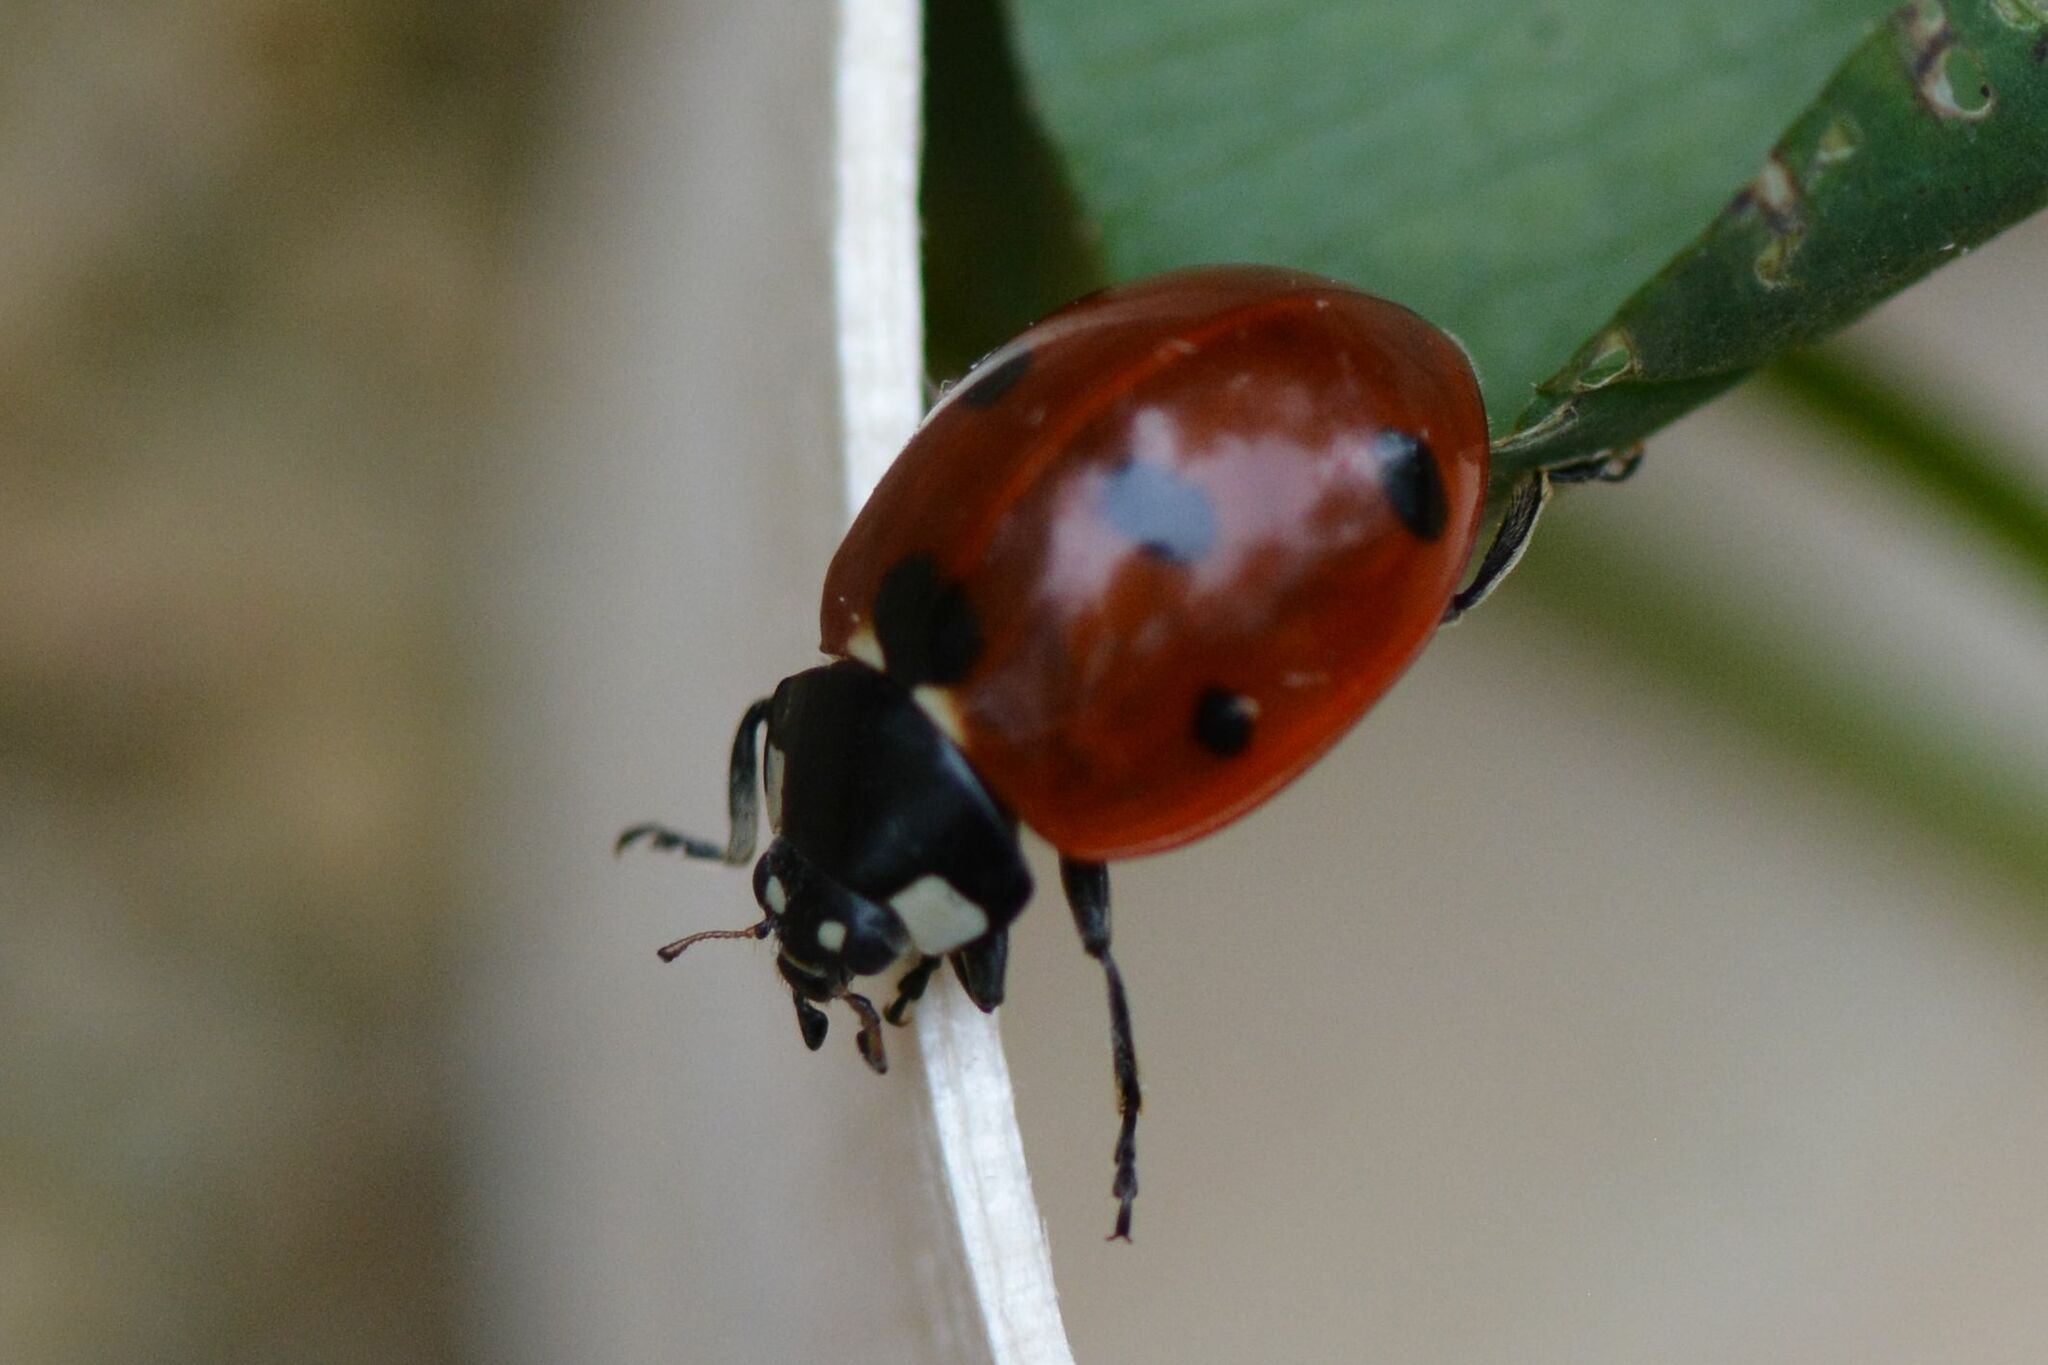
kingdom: Animalia
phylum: Arthropoda
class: Insecta
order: Coleoptera
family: Coccinellidae
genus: Coccinella
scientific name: Coccinella septempunctata
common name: Sevenspotted lady beetle
